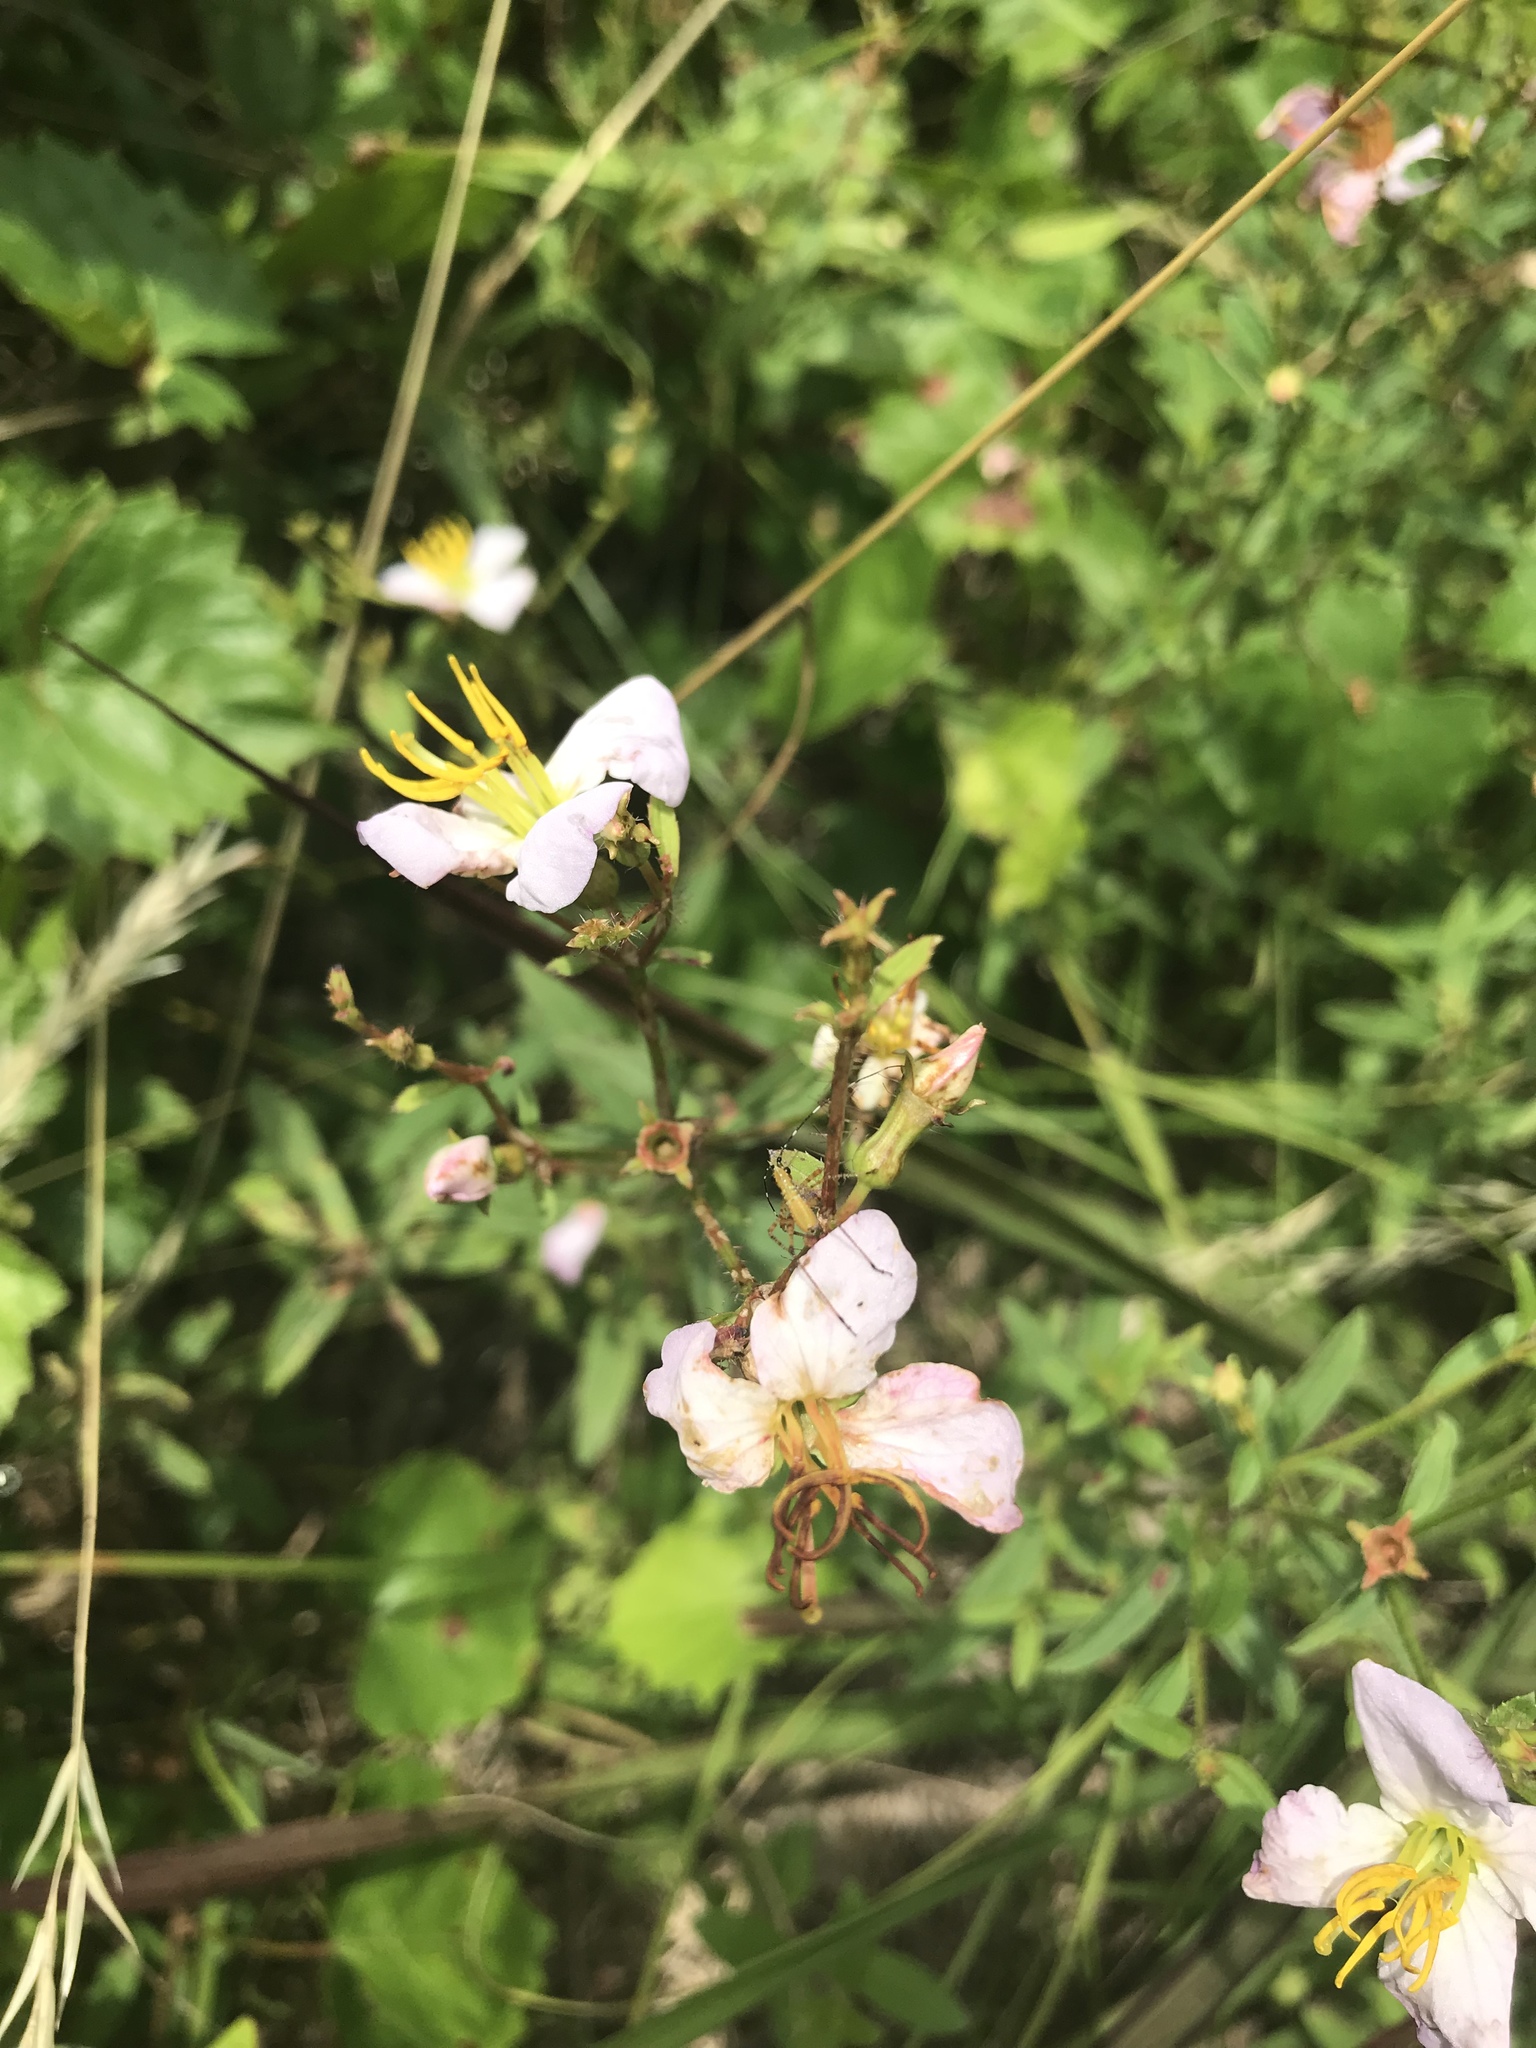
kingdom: Plantae
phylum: Tracheophyta
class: Magnoliopsida
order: Myrtales
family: Melastomataceae
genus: Rhexia
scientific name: Rhexia mariana
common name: Dull meadow-pitcher
